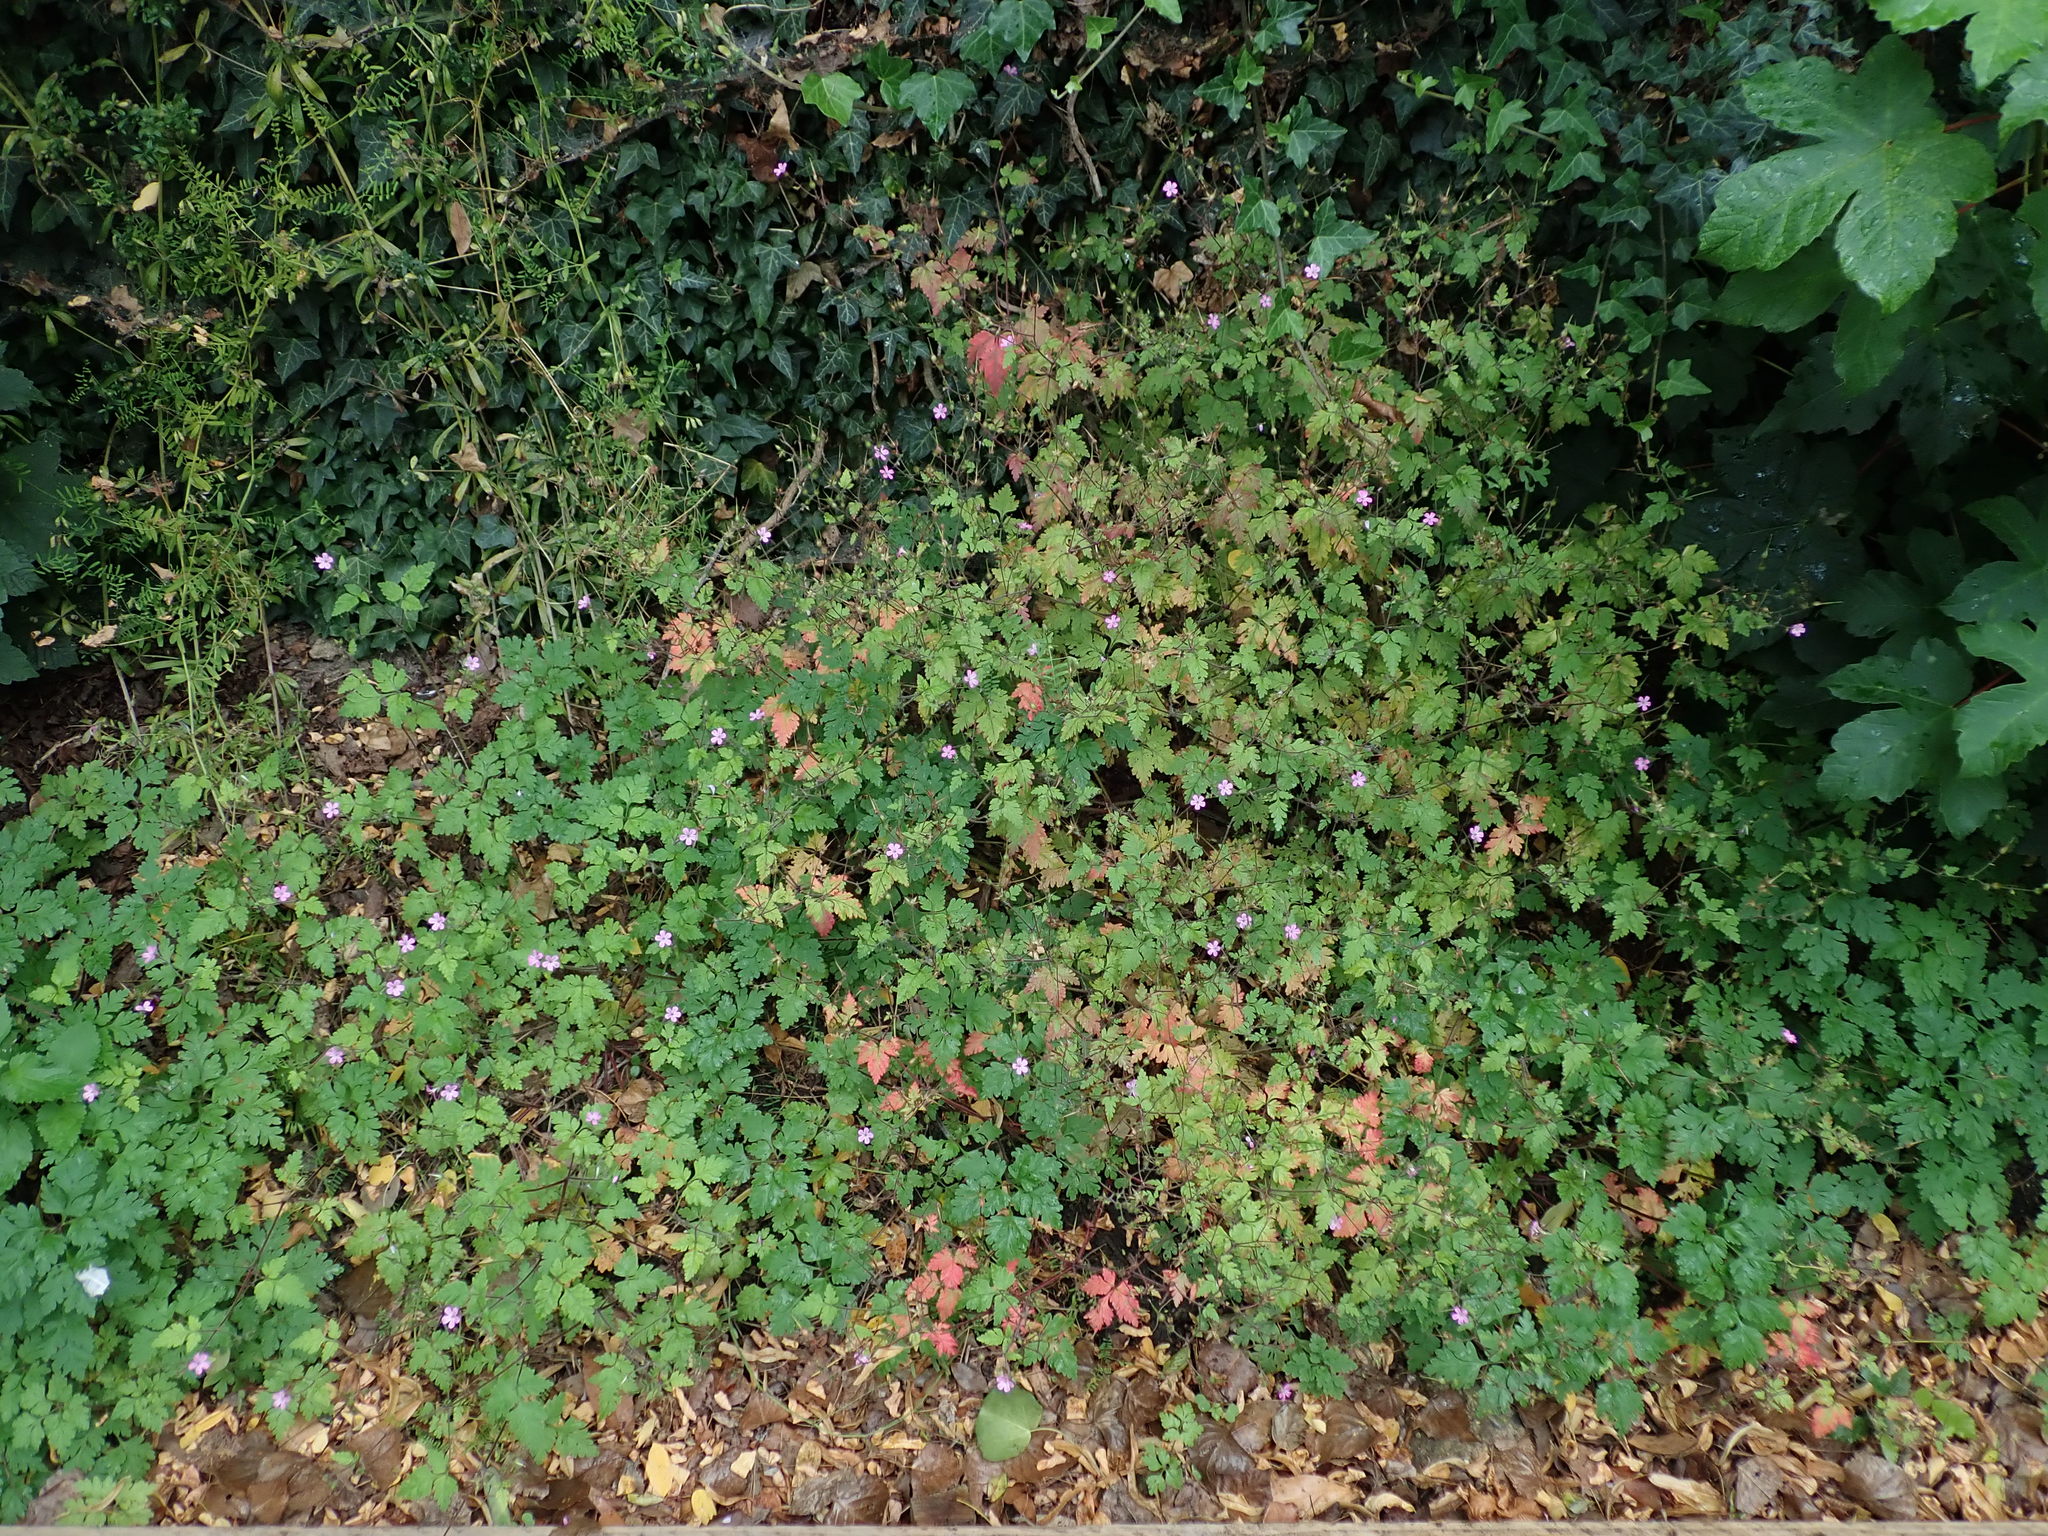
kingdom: Plantae
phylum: Tracheophyta
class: Magnoliopsida
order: Geraniales
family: Geraniaceae
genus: Geranium
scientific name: Geranium robertianum
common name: Herb-robert
